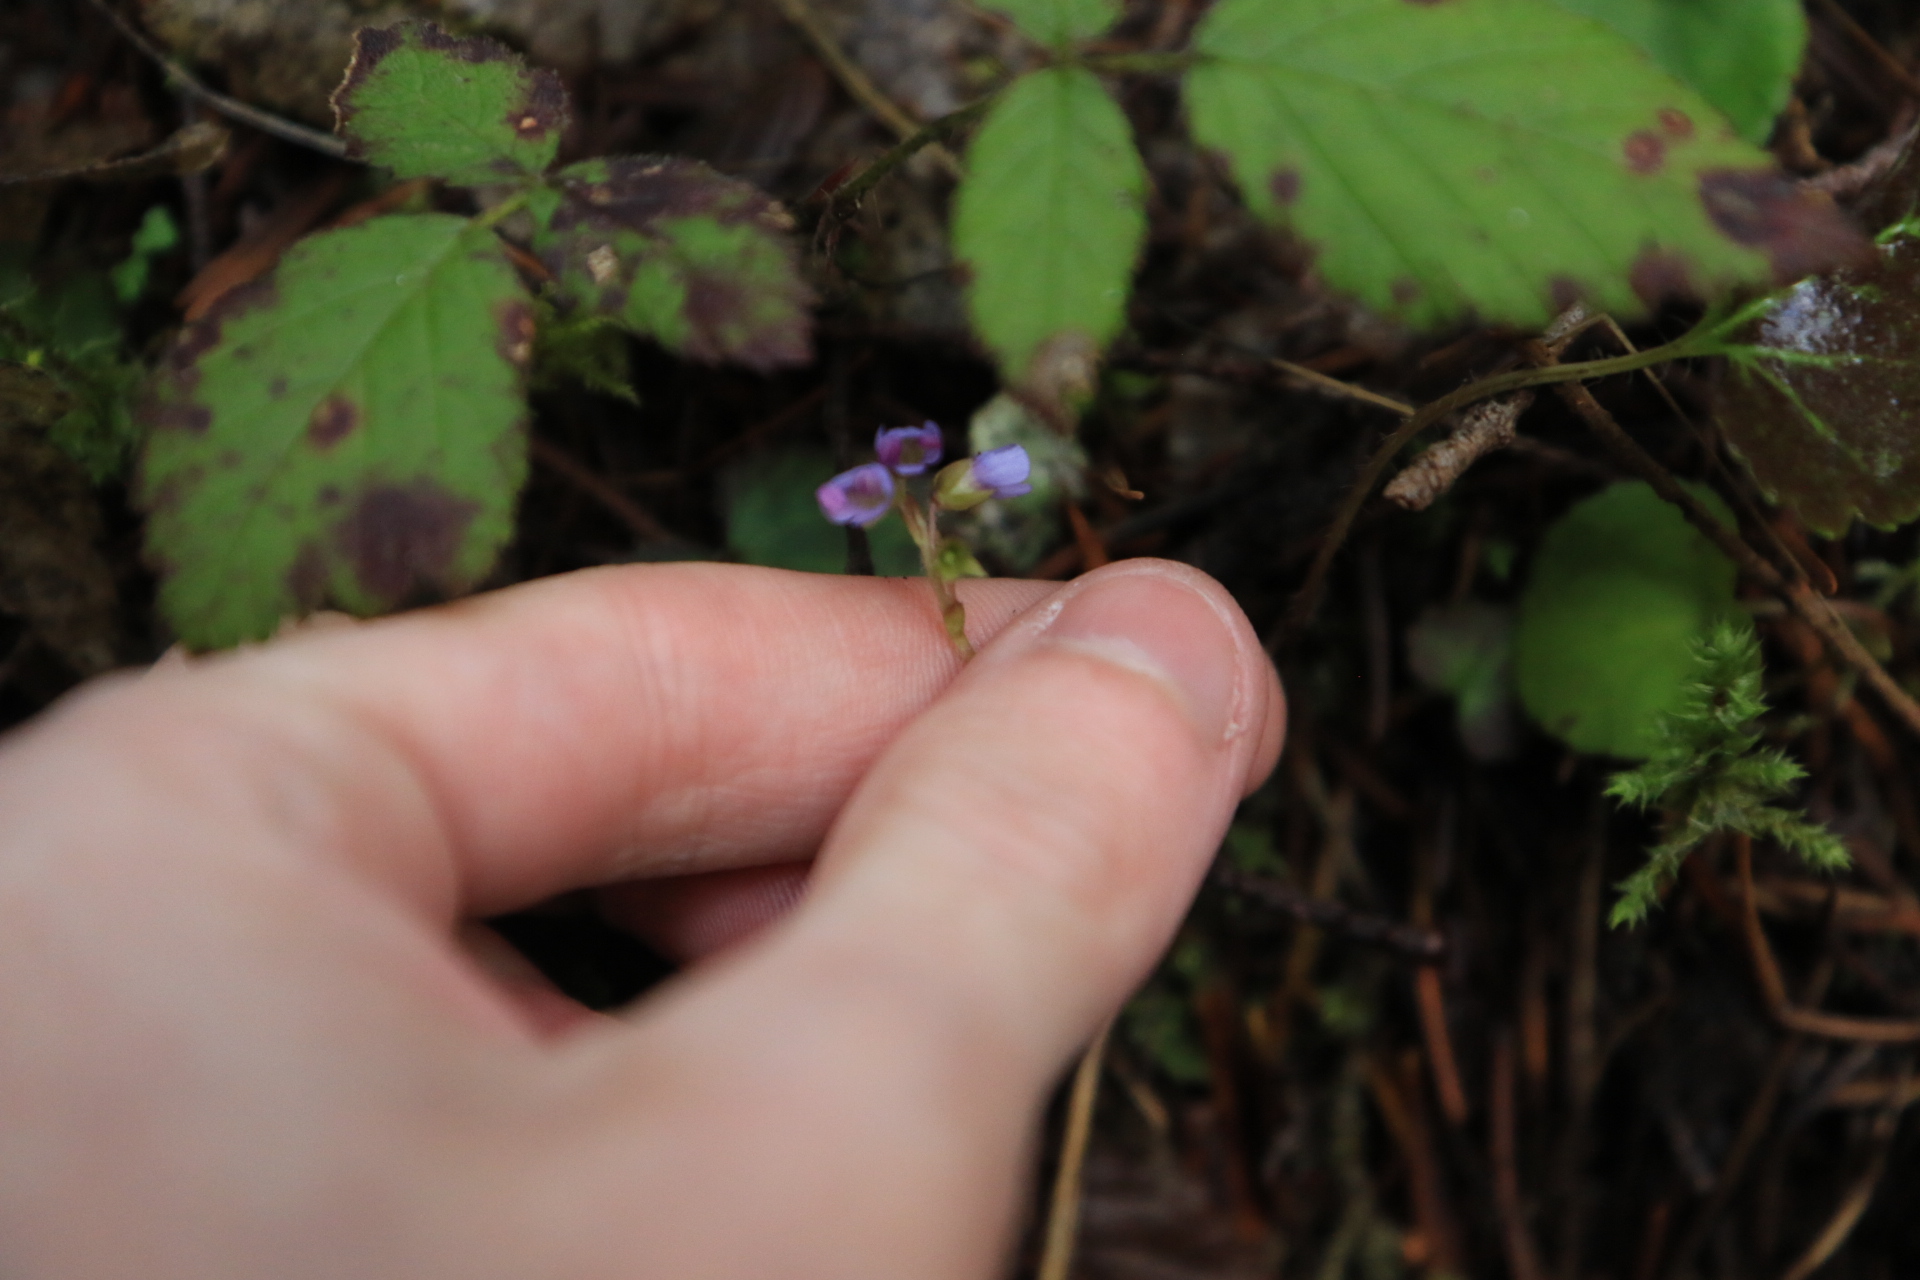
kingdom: Plantae
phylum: Tracheophyta
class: Magnoliopsida
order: Lamiales
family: Plantaginaceae
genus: Synthyris
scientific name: Synthyris reniformis
